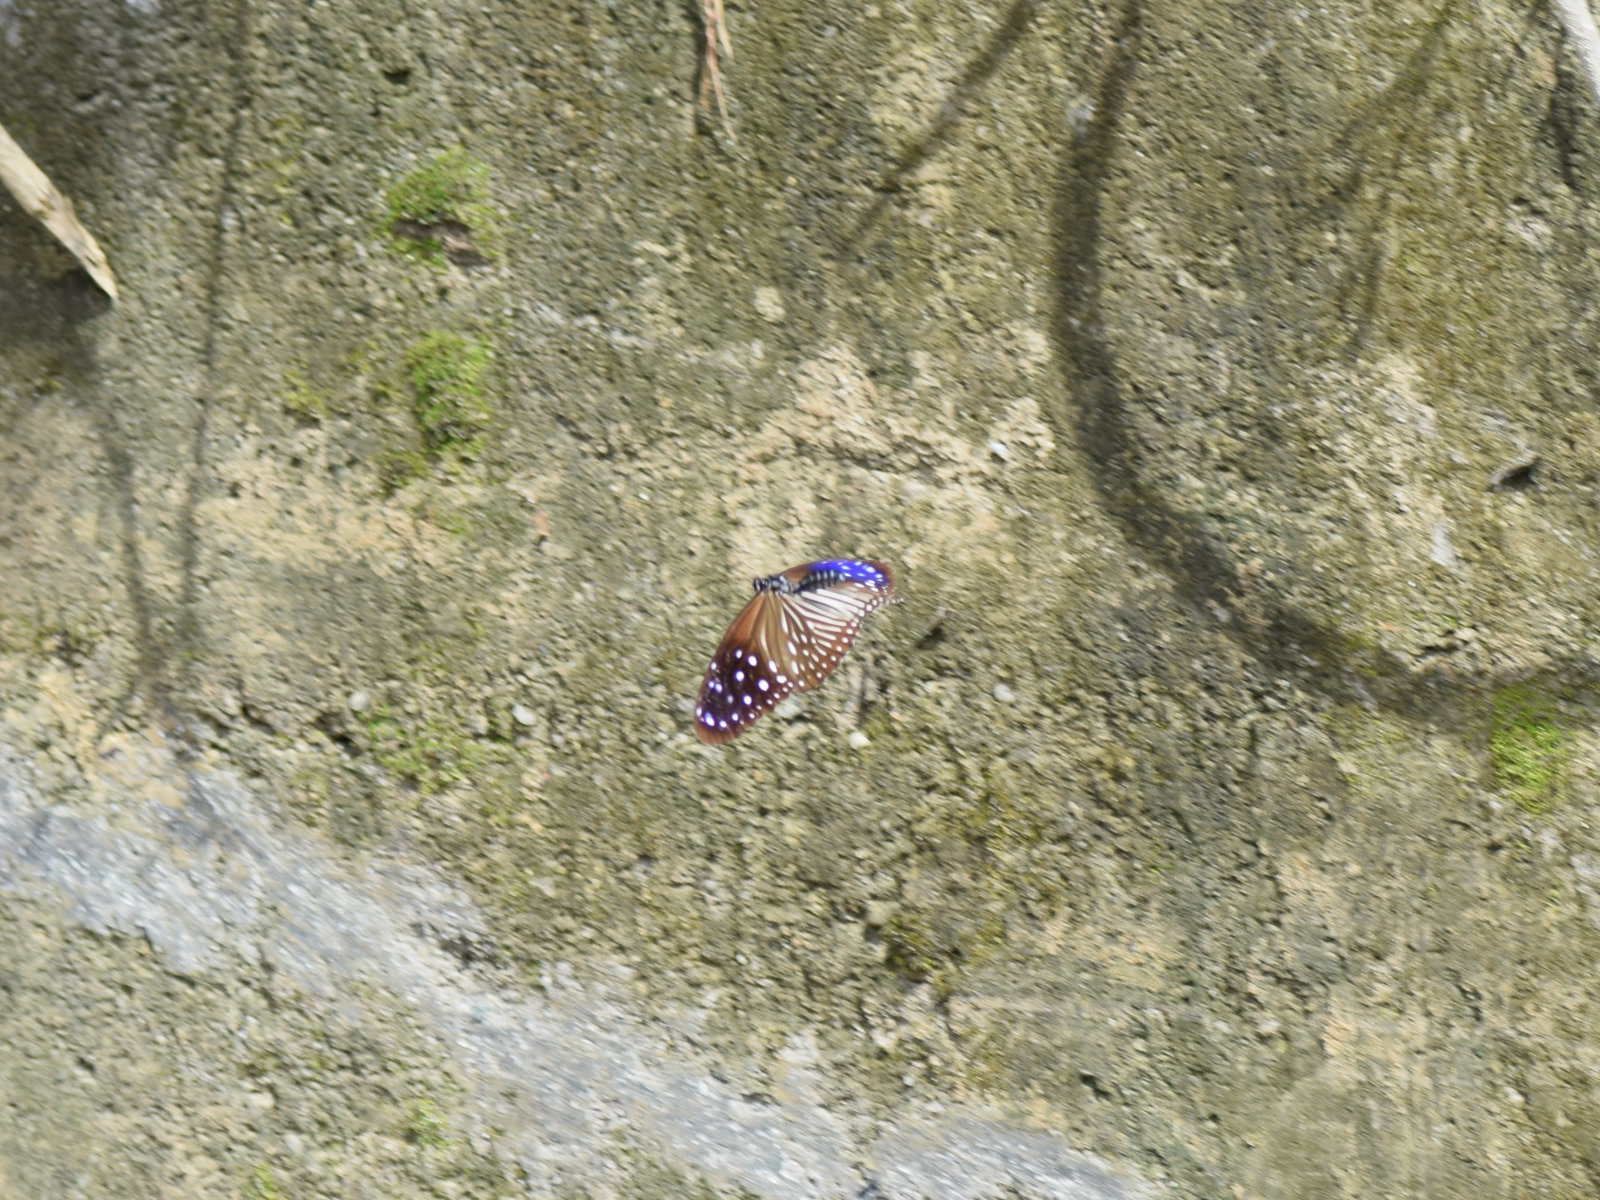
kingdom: Animalia
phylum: Arthropoda
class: Insecta
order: Lepidoptera
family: Nymphalidae
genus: Euploea
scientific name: Euploea mulciber
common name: Striped blue crow butterfly
